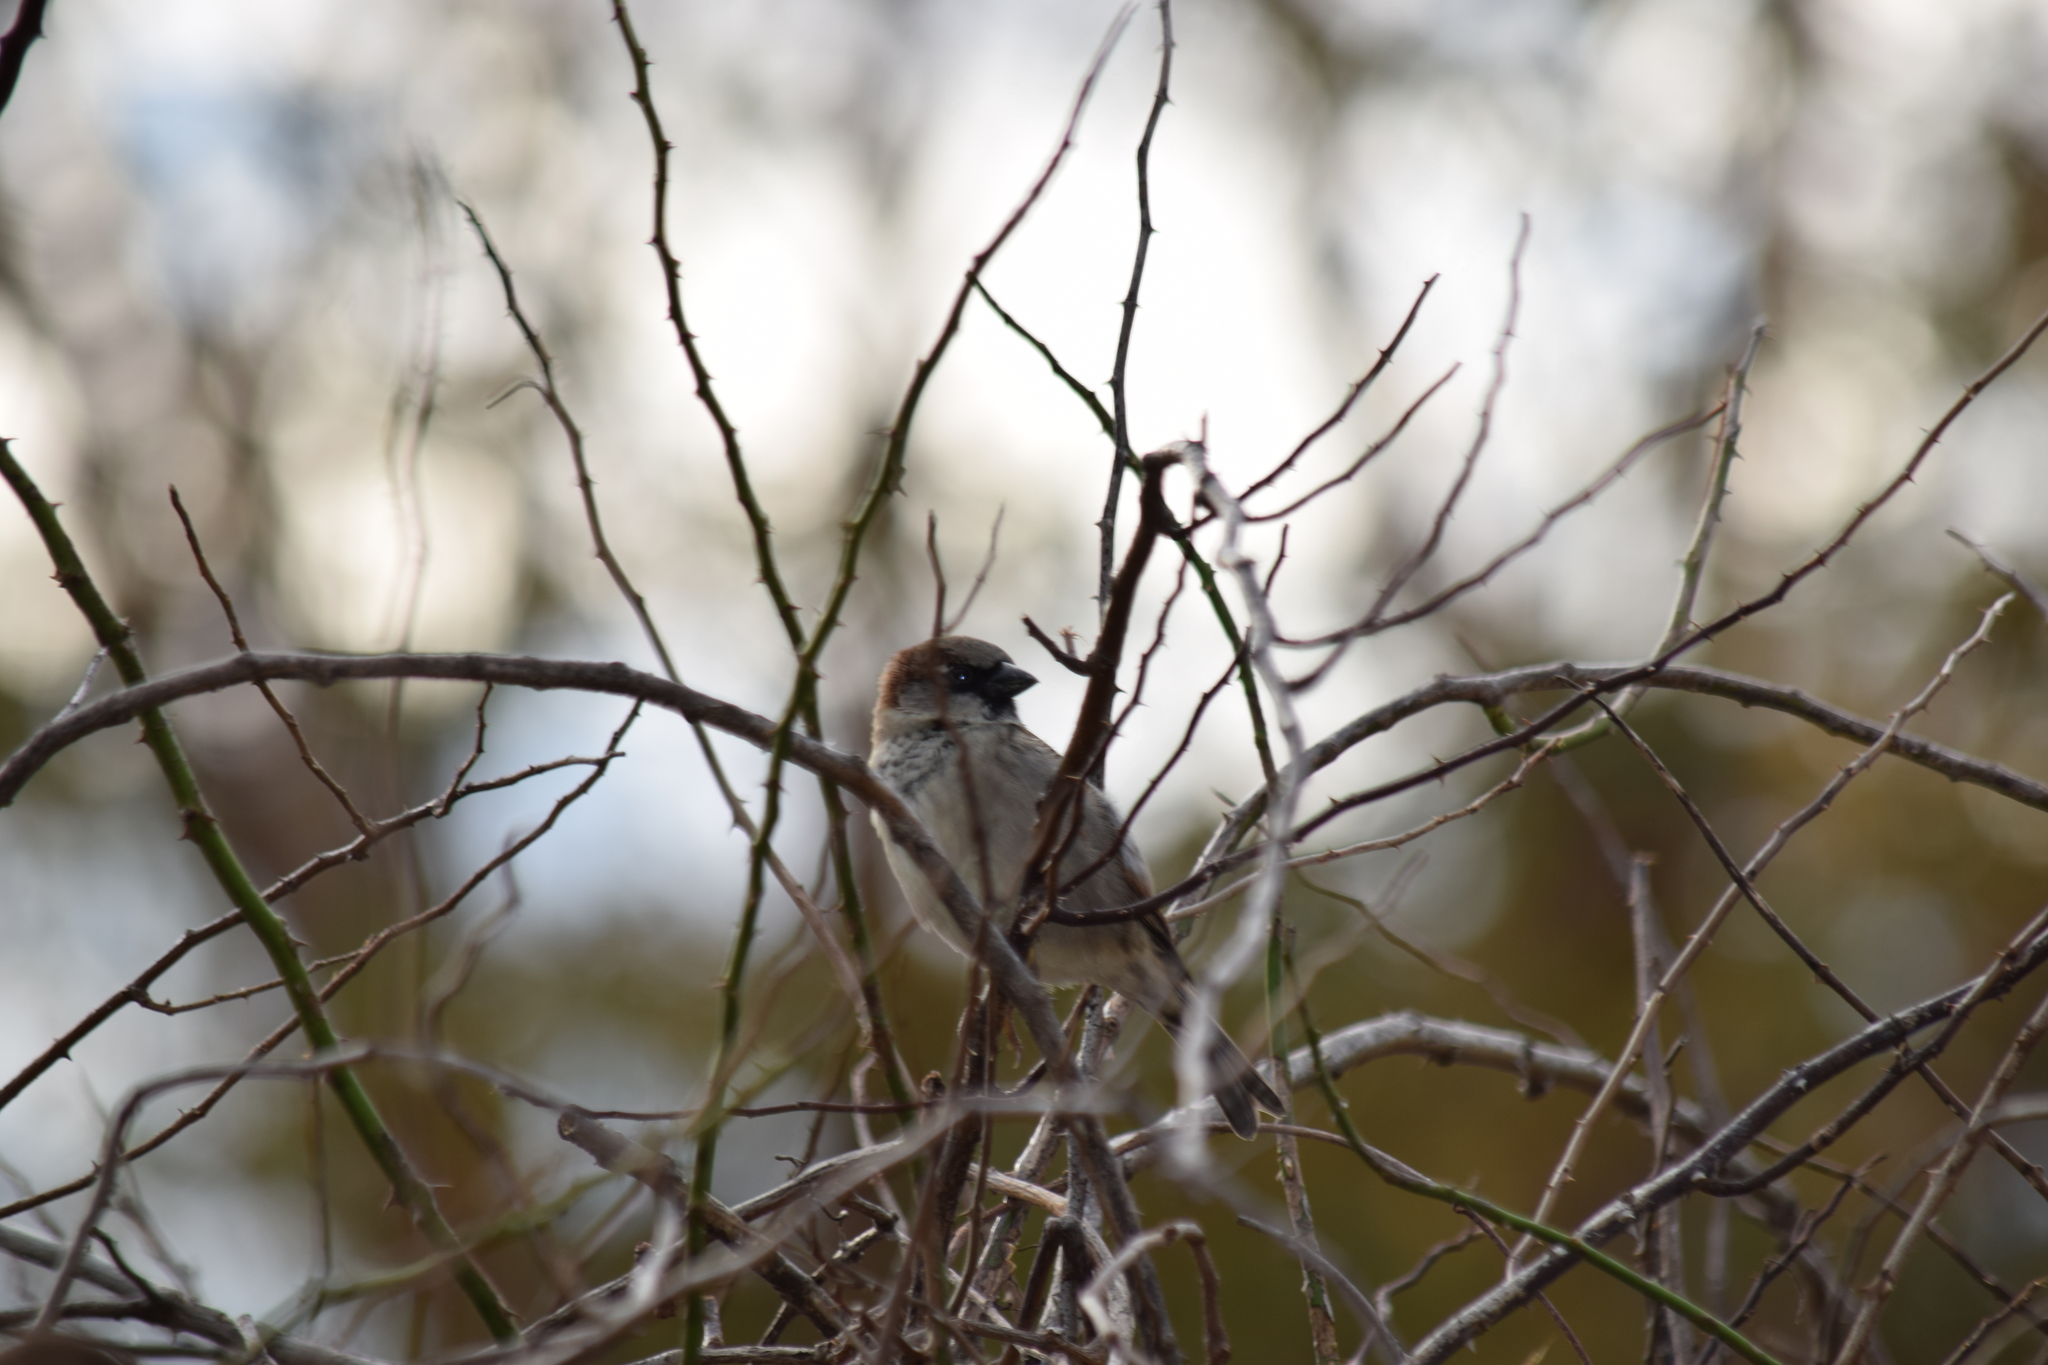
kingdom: Animalia
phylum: Chordata
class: Aves
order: Passeriformes
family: Passeridae
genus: Passer
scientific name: Passer domesticus
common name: House sparrow
